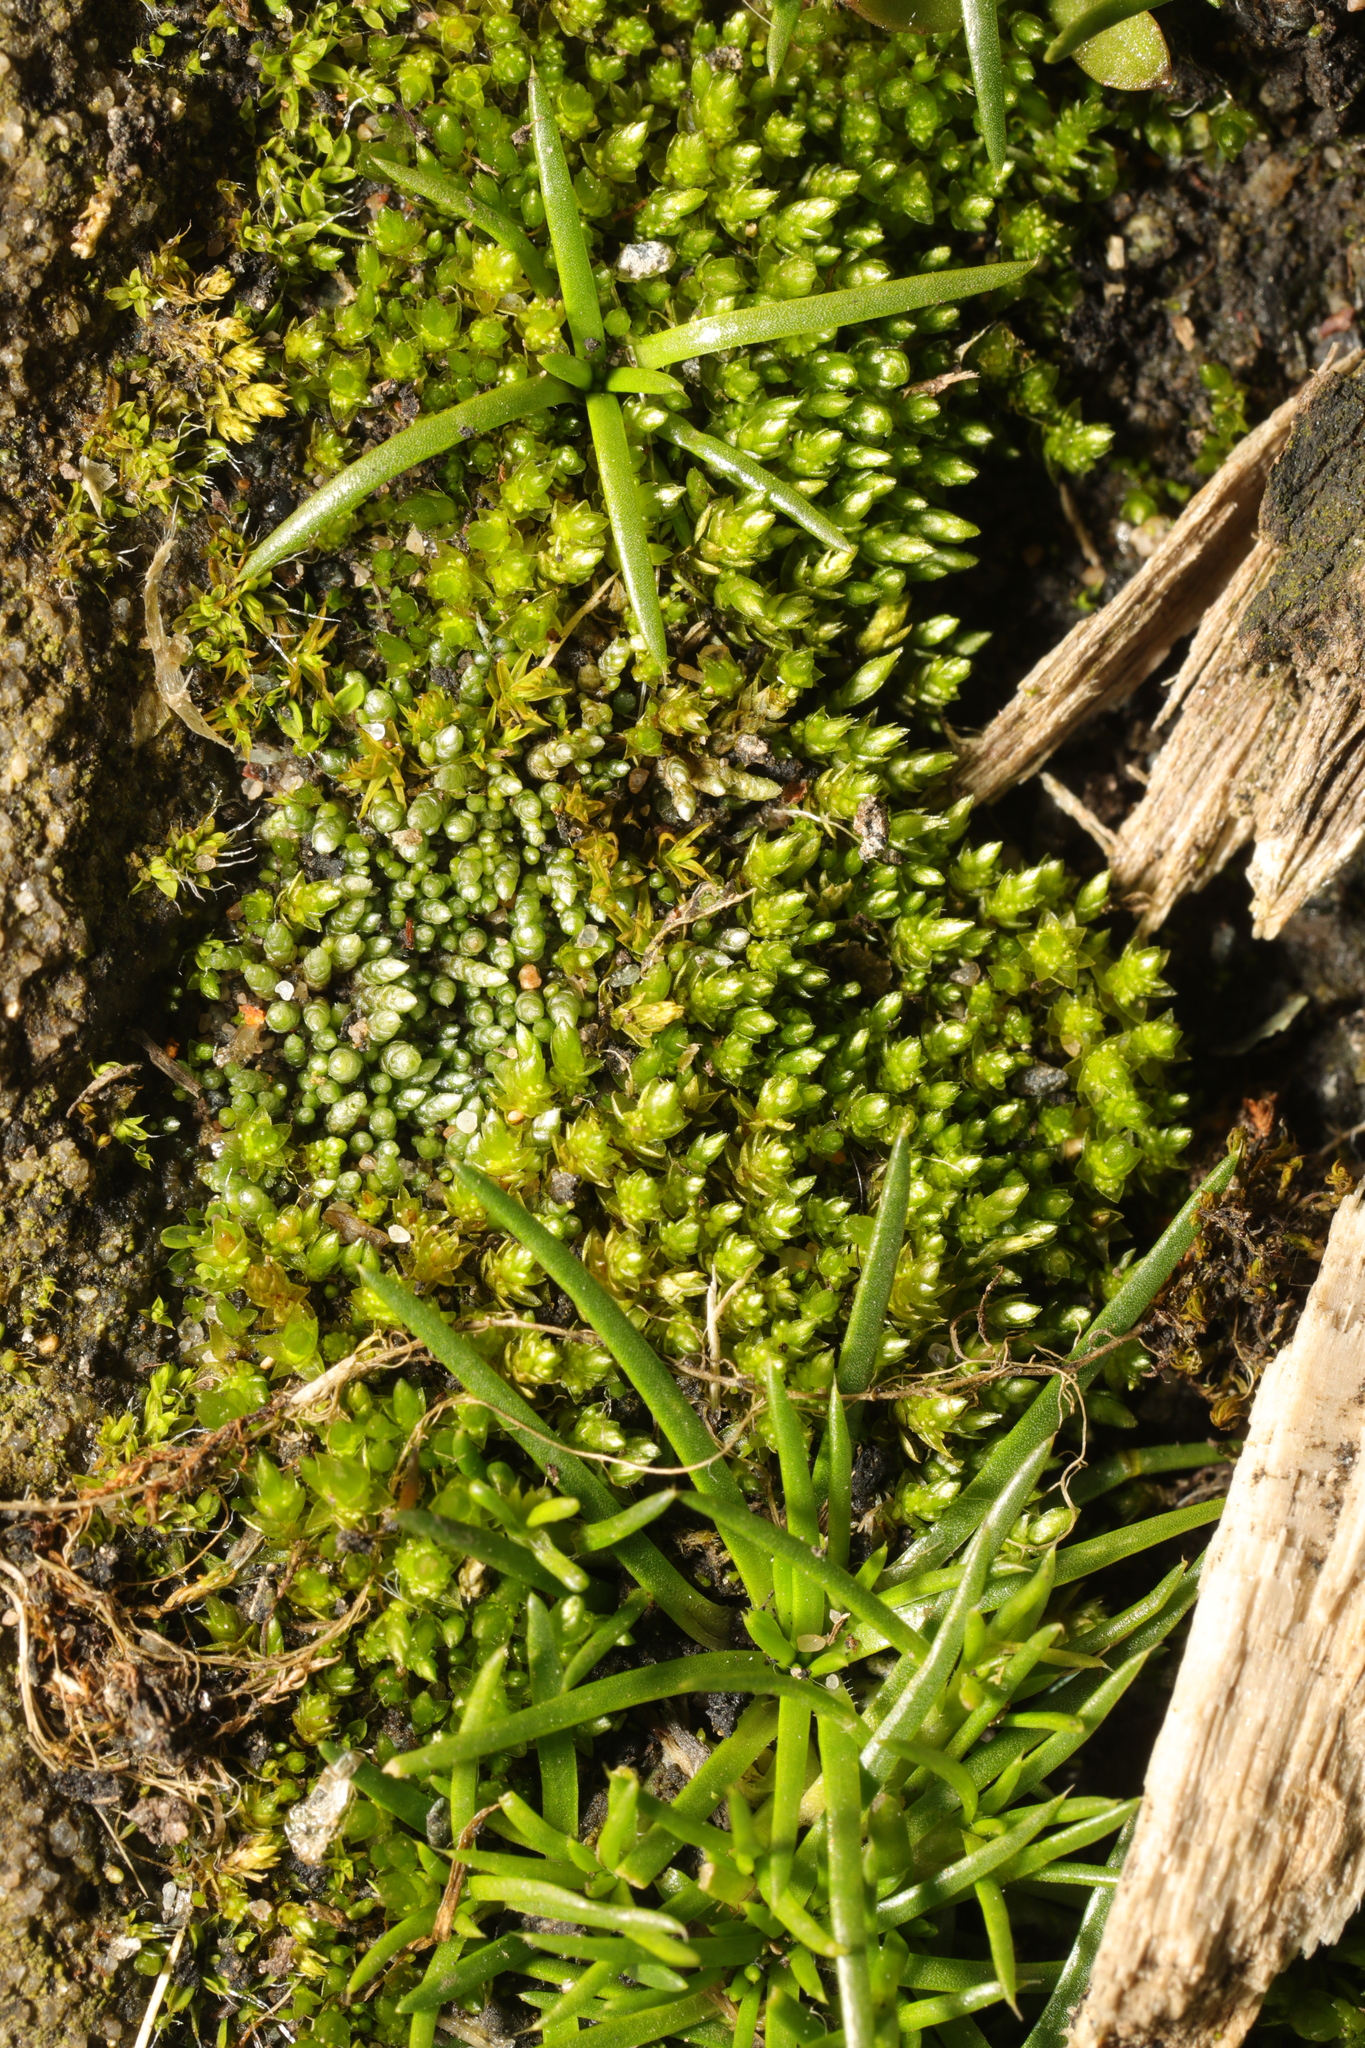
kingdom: Plantae
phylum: Bryophyta
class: Bryopsida
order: Bryales
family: Bryaceae
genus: Bryum
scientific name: Bryum argenteum
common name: Silver-moss
